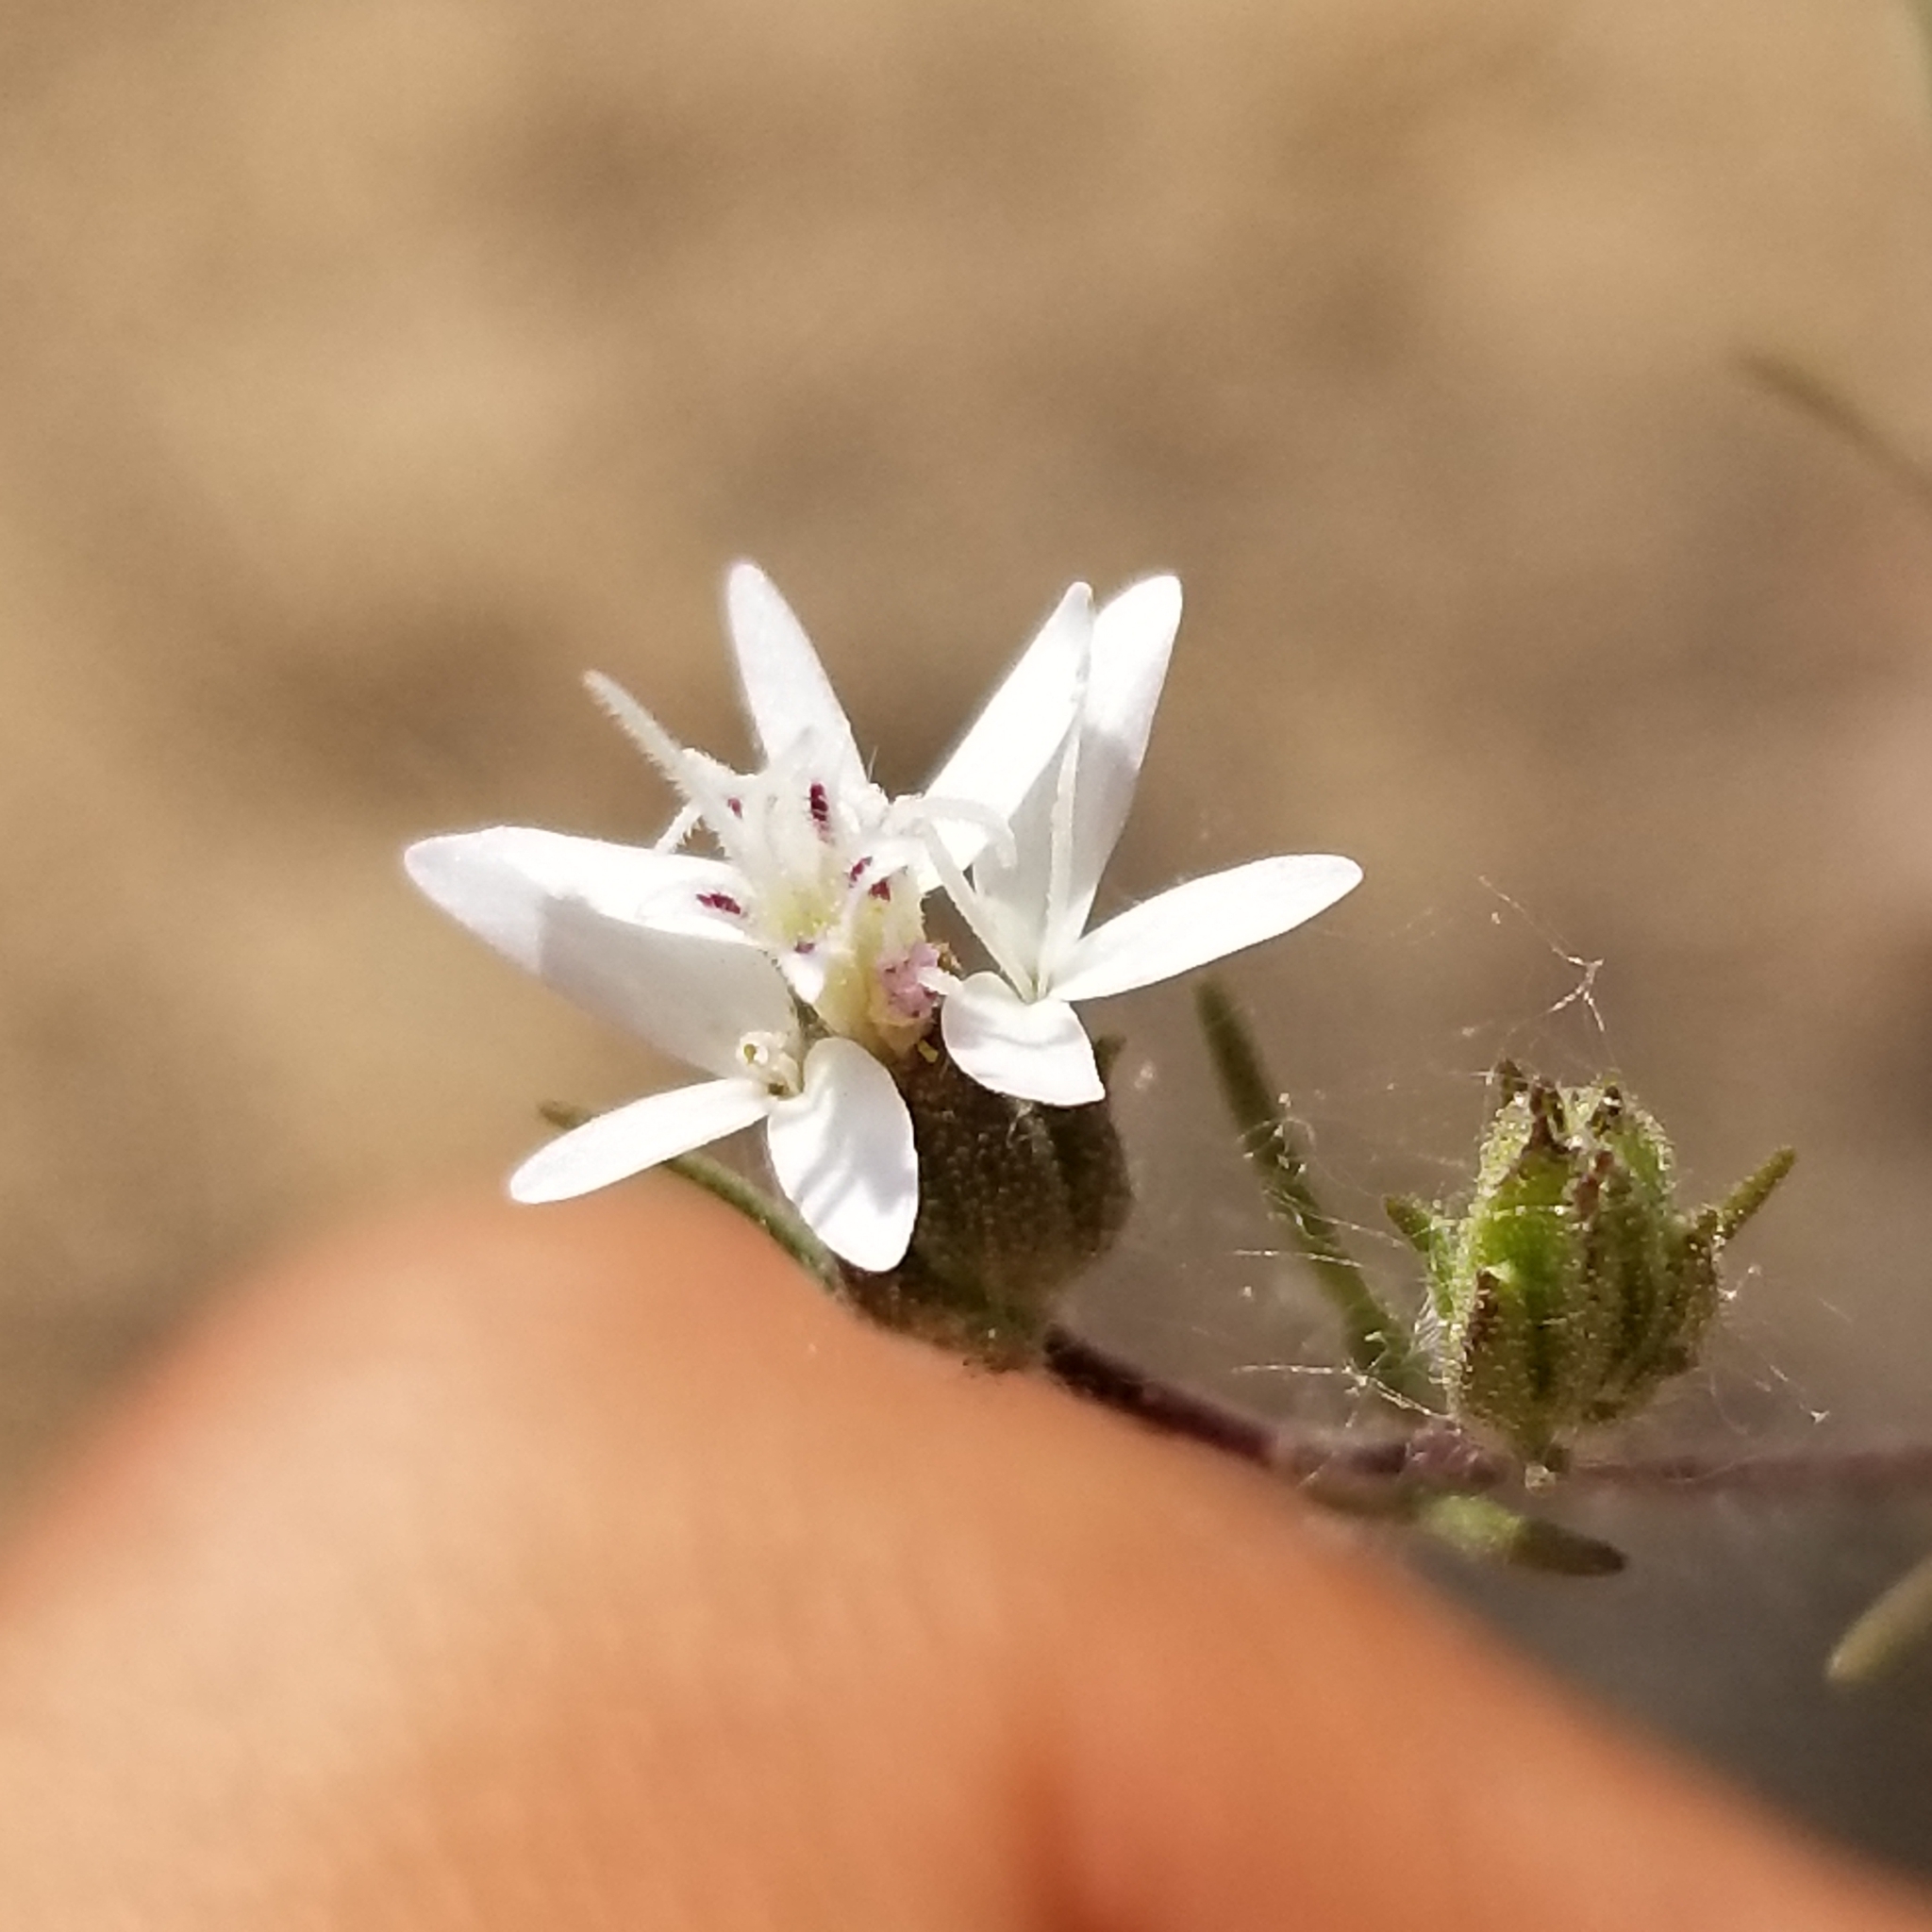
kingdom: Plantae
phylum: Tracheophyta
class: Magnoliopsida
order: Asterales
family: Asteraceae
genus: Osmadenia
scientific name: Osmadenia tenella
